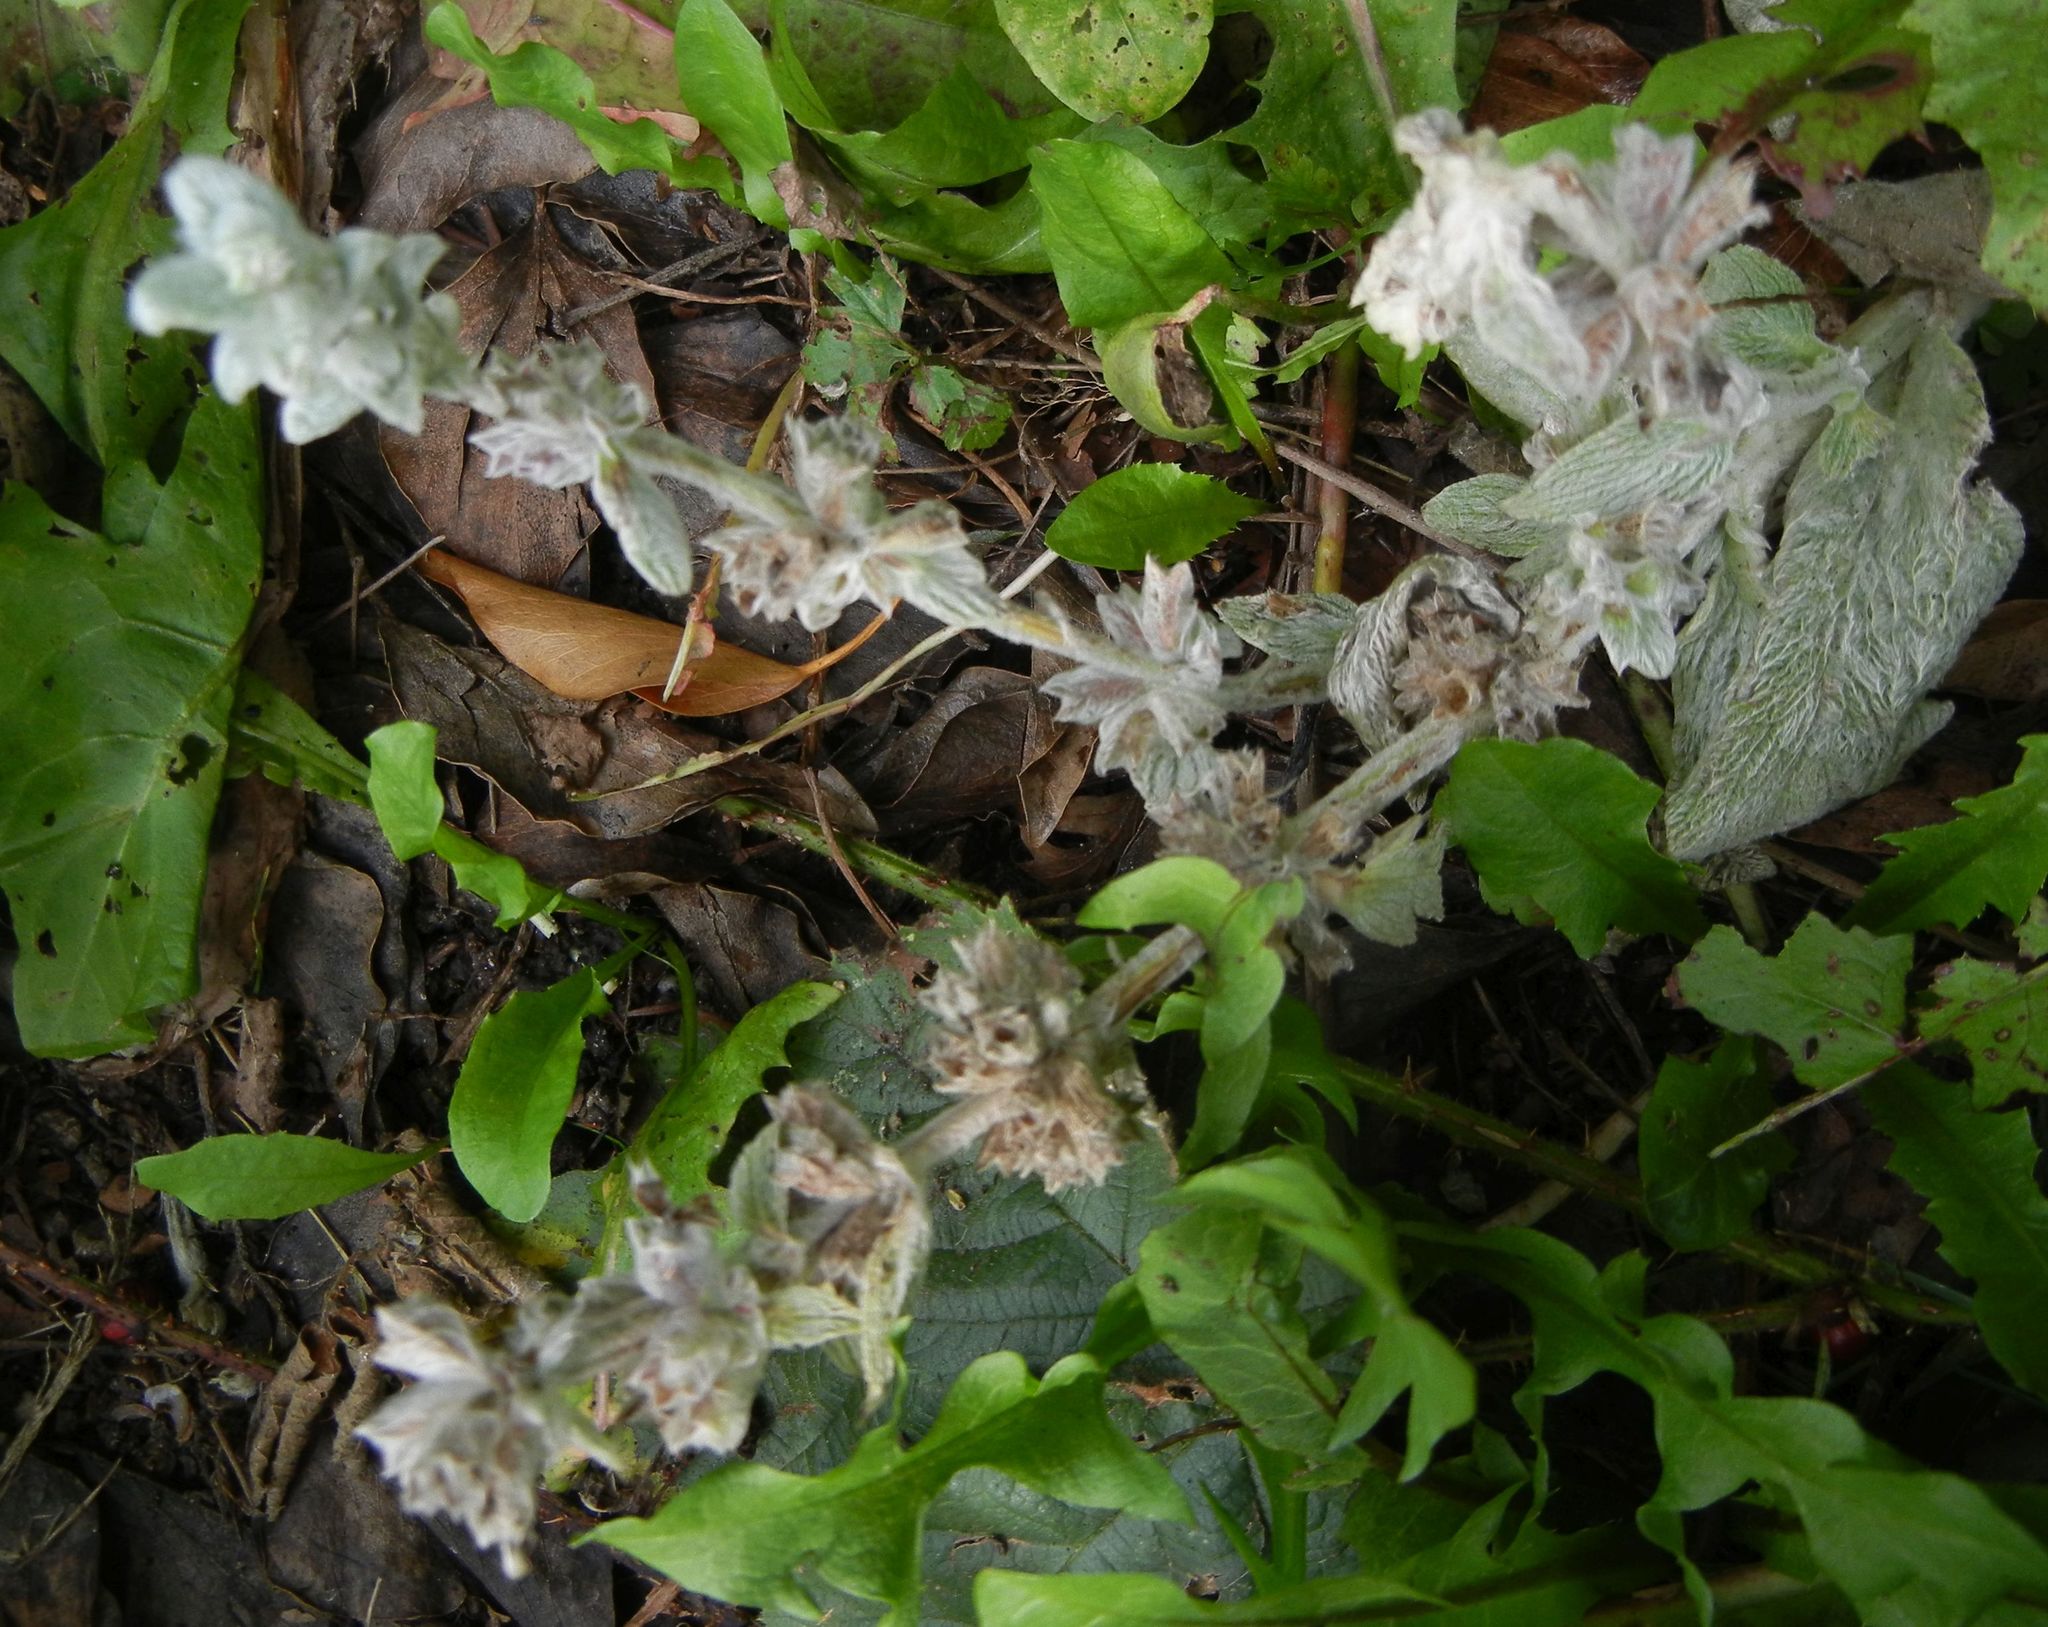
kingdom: Plantae
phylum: Tracheophyta
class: Magnoliopsida
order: Lamiales
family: Lamiaceae
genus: Stachys
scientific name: Stachys byzantina
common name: Lamb's-ear
